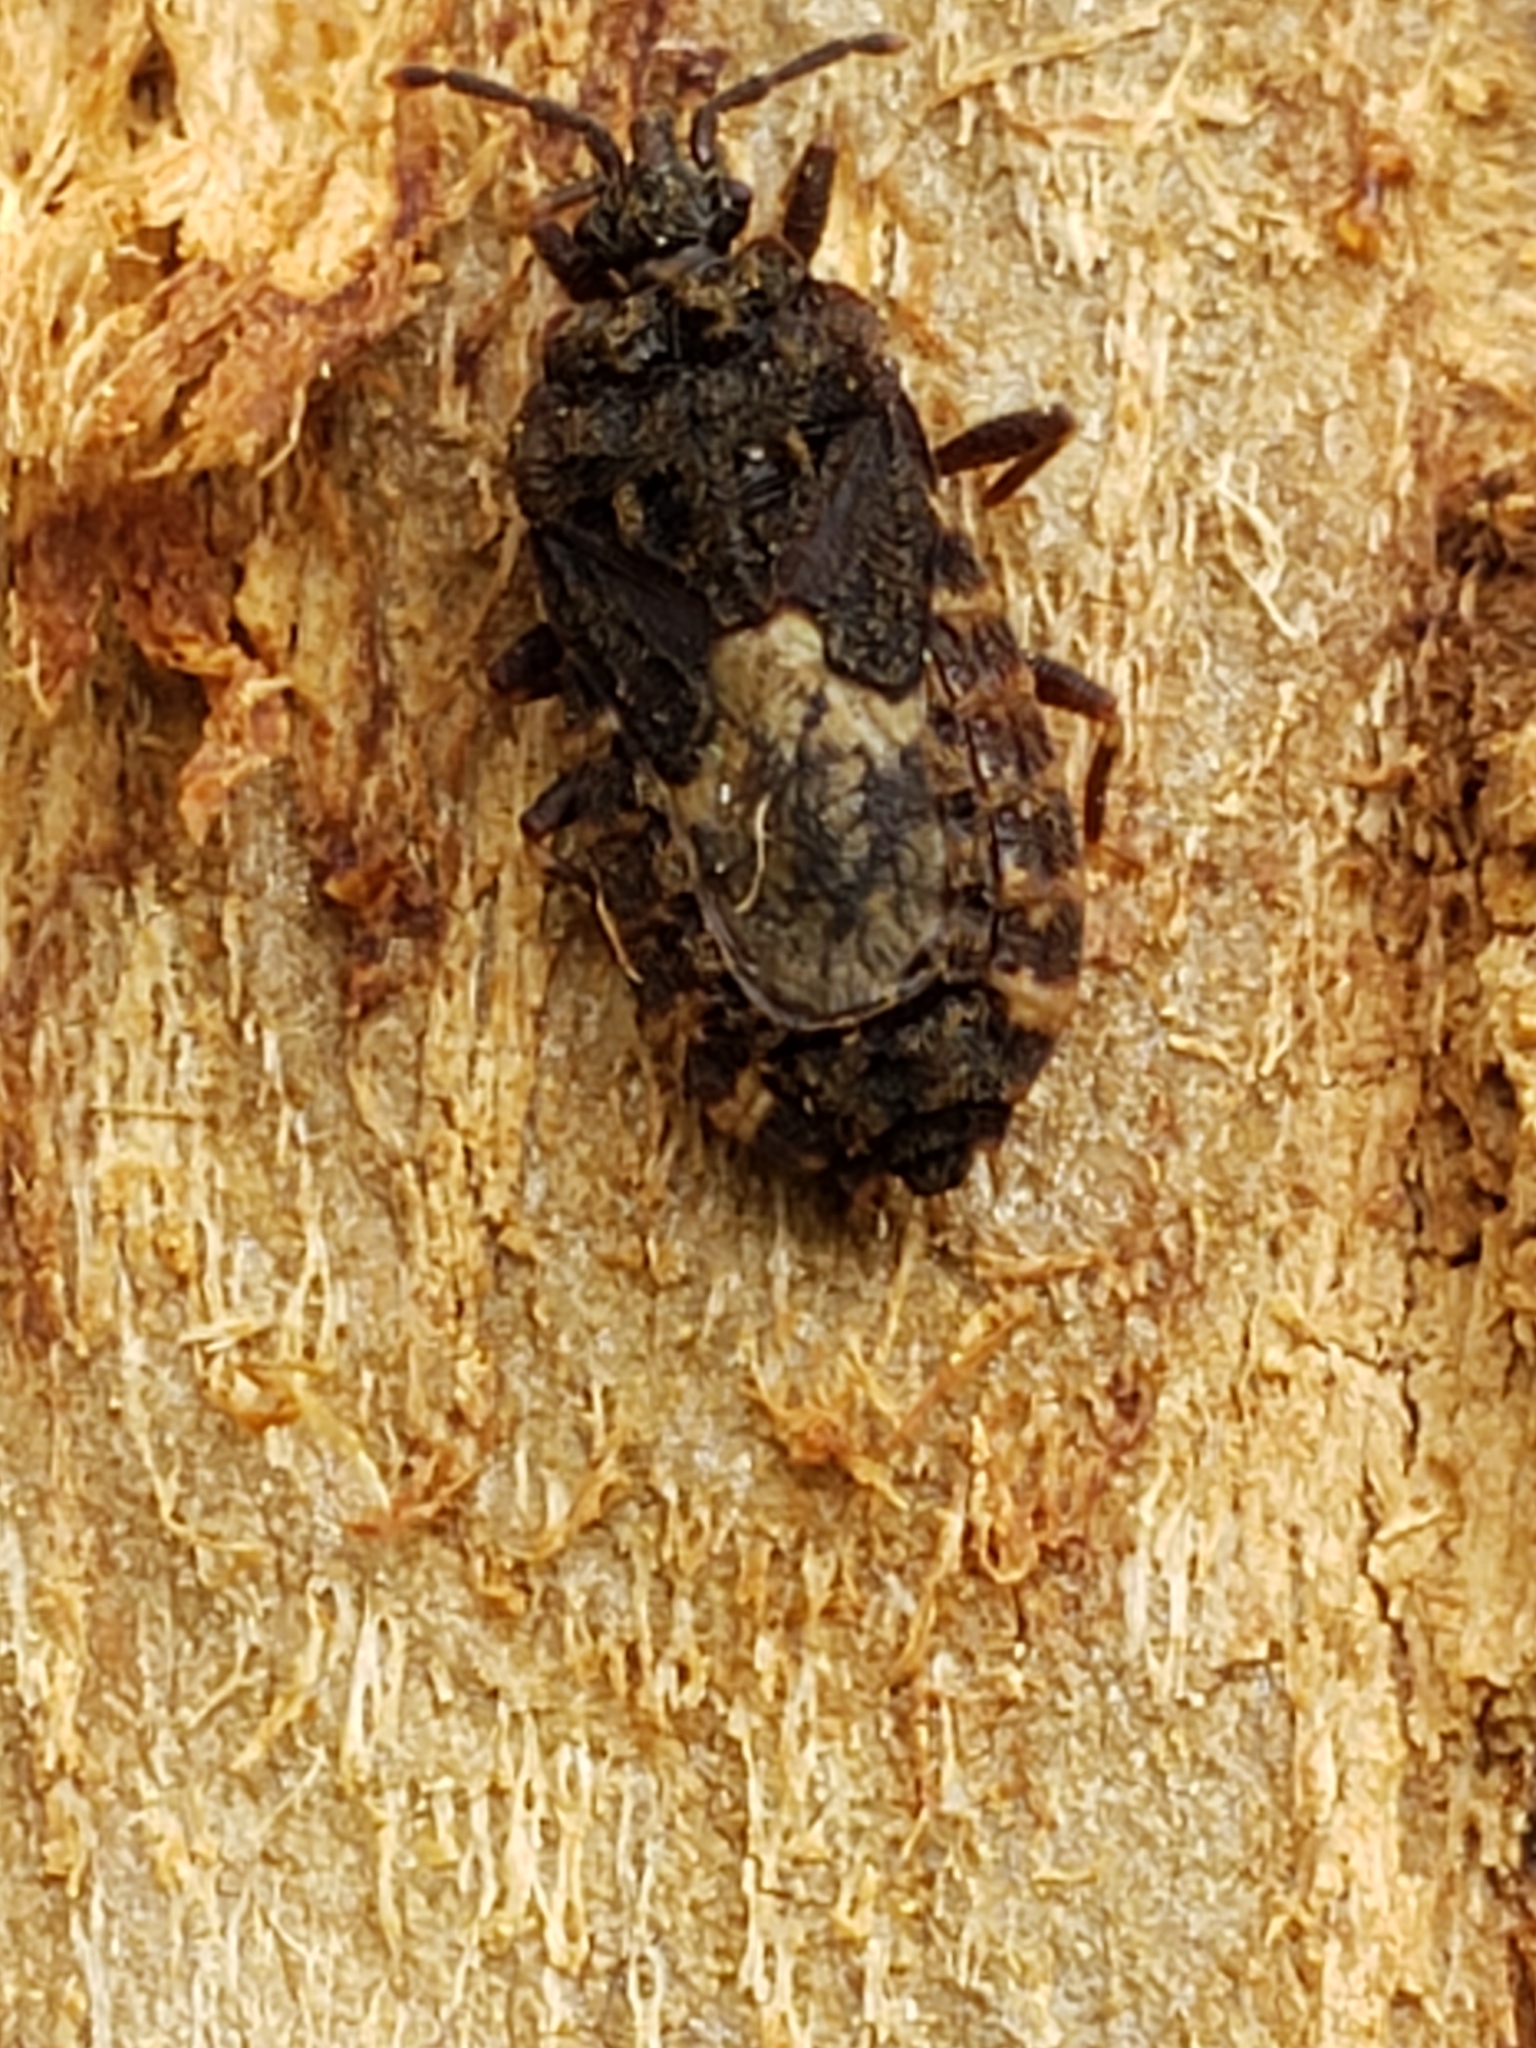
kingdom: Animalia
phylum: Arthropoda
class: Insecta
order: Hemiptera
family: Aradidae
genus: Mezira
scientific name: Mezira
